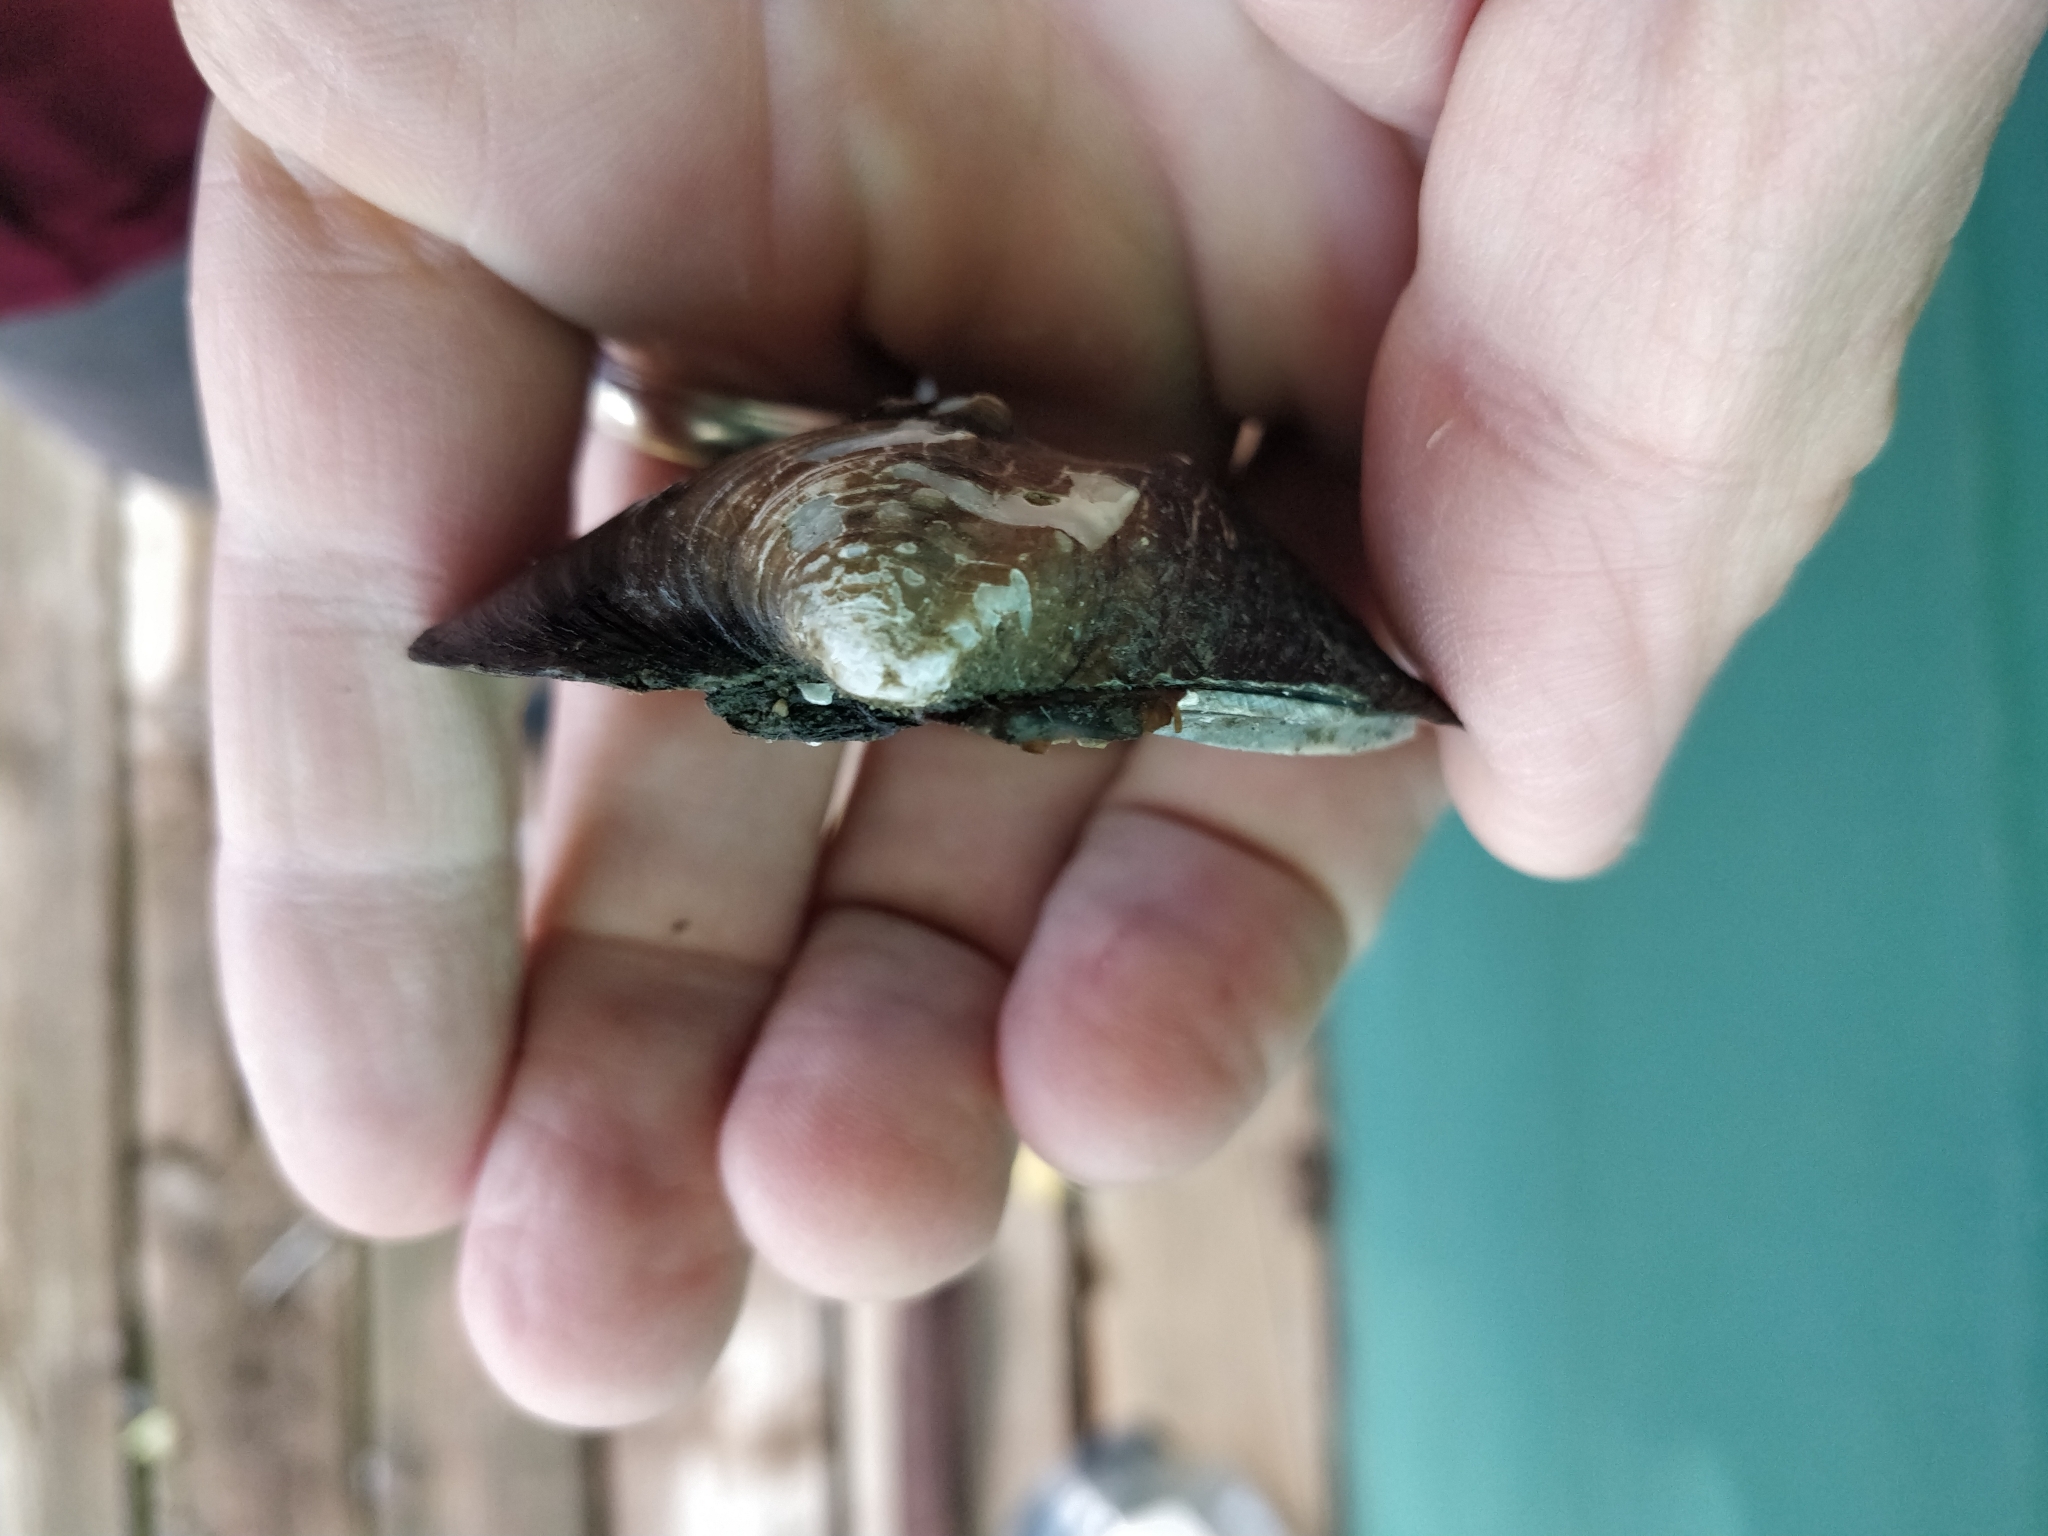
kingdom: Animalia
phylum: Mollusca
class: Bivalvia
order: Unionida
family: Unionidae
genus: Quadrula
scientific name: Quadrula quadrula
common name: Mapleleaf
